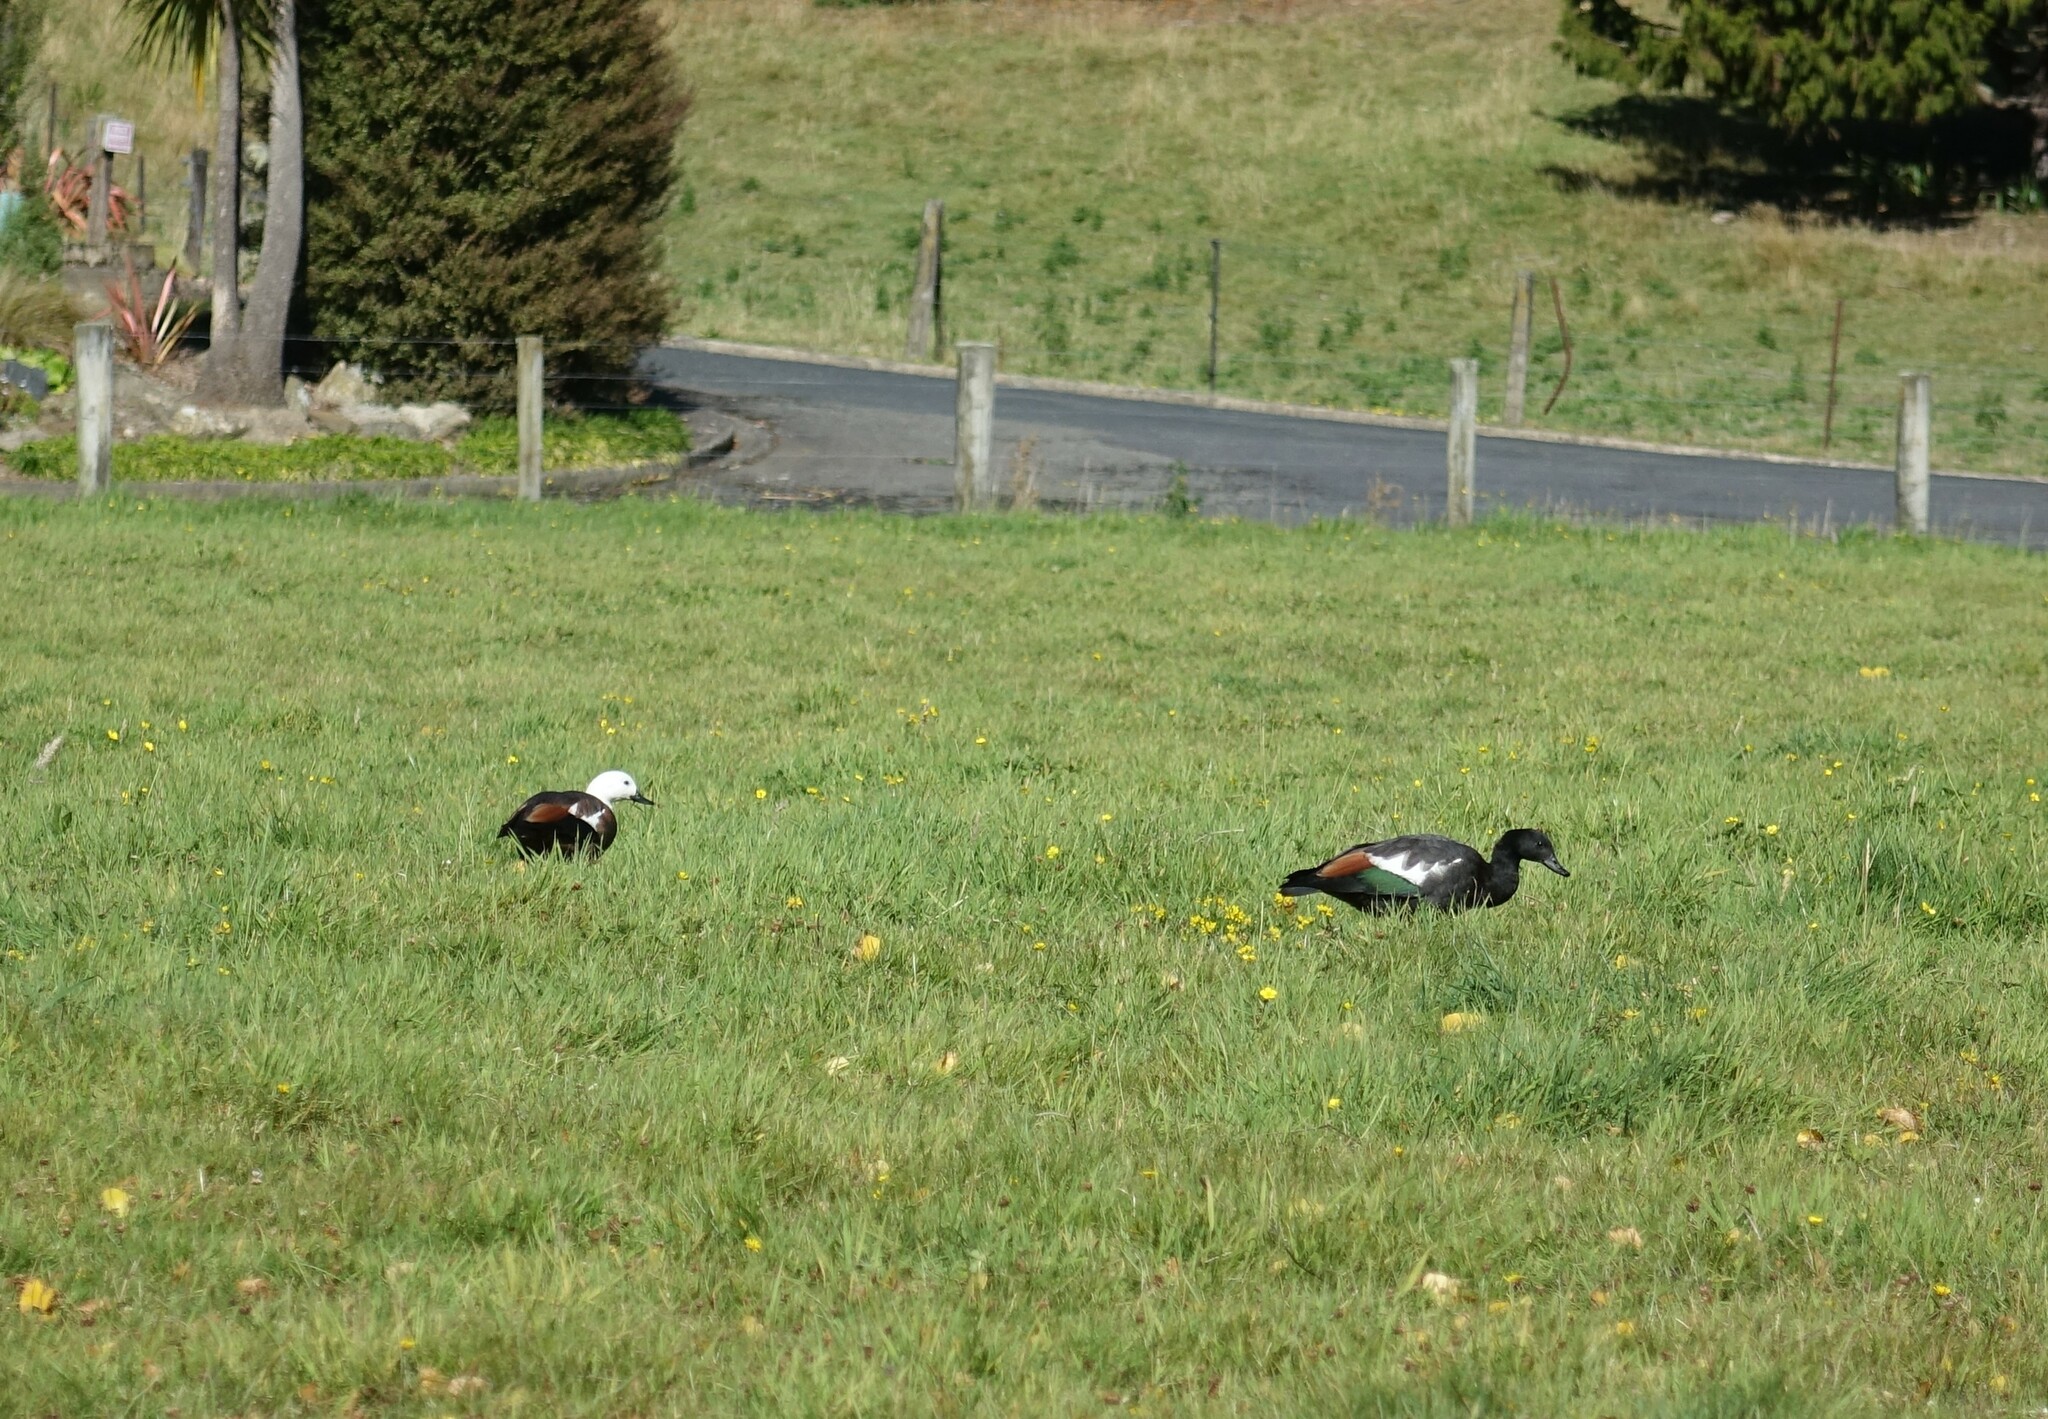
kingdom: Animalia
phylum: Chordata
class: Aves
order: Anseriformes
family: Anatidae
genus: Tadorna
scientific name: Tadorna variegata
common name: Paradise shelduck
